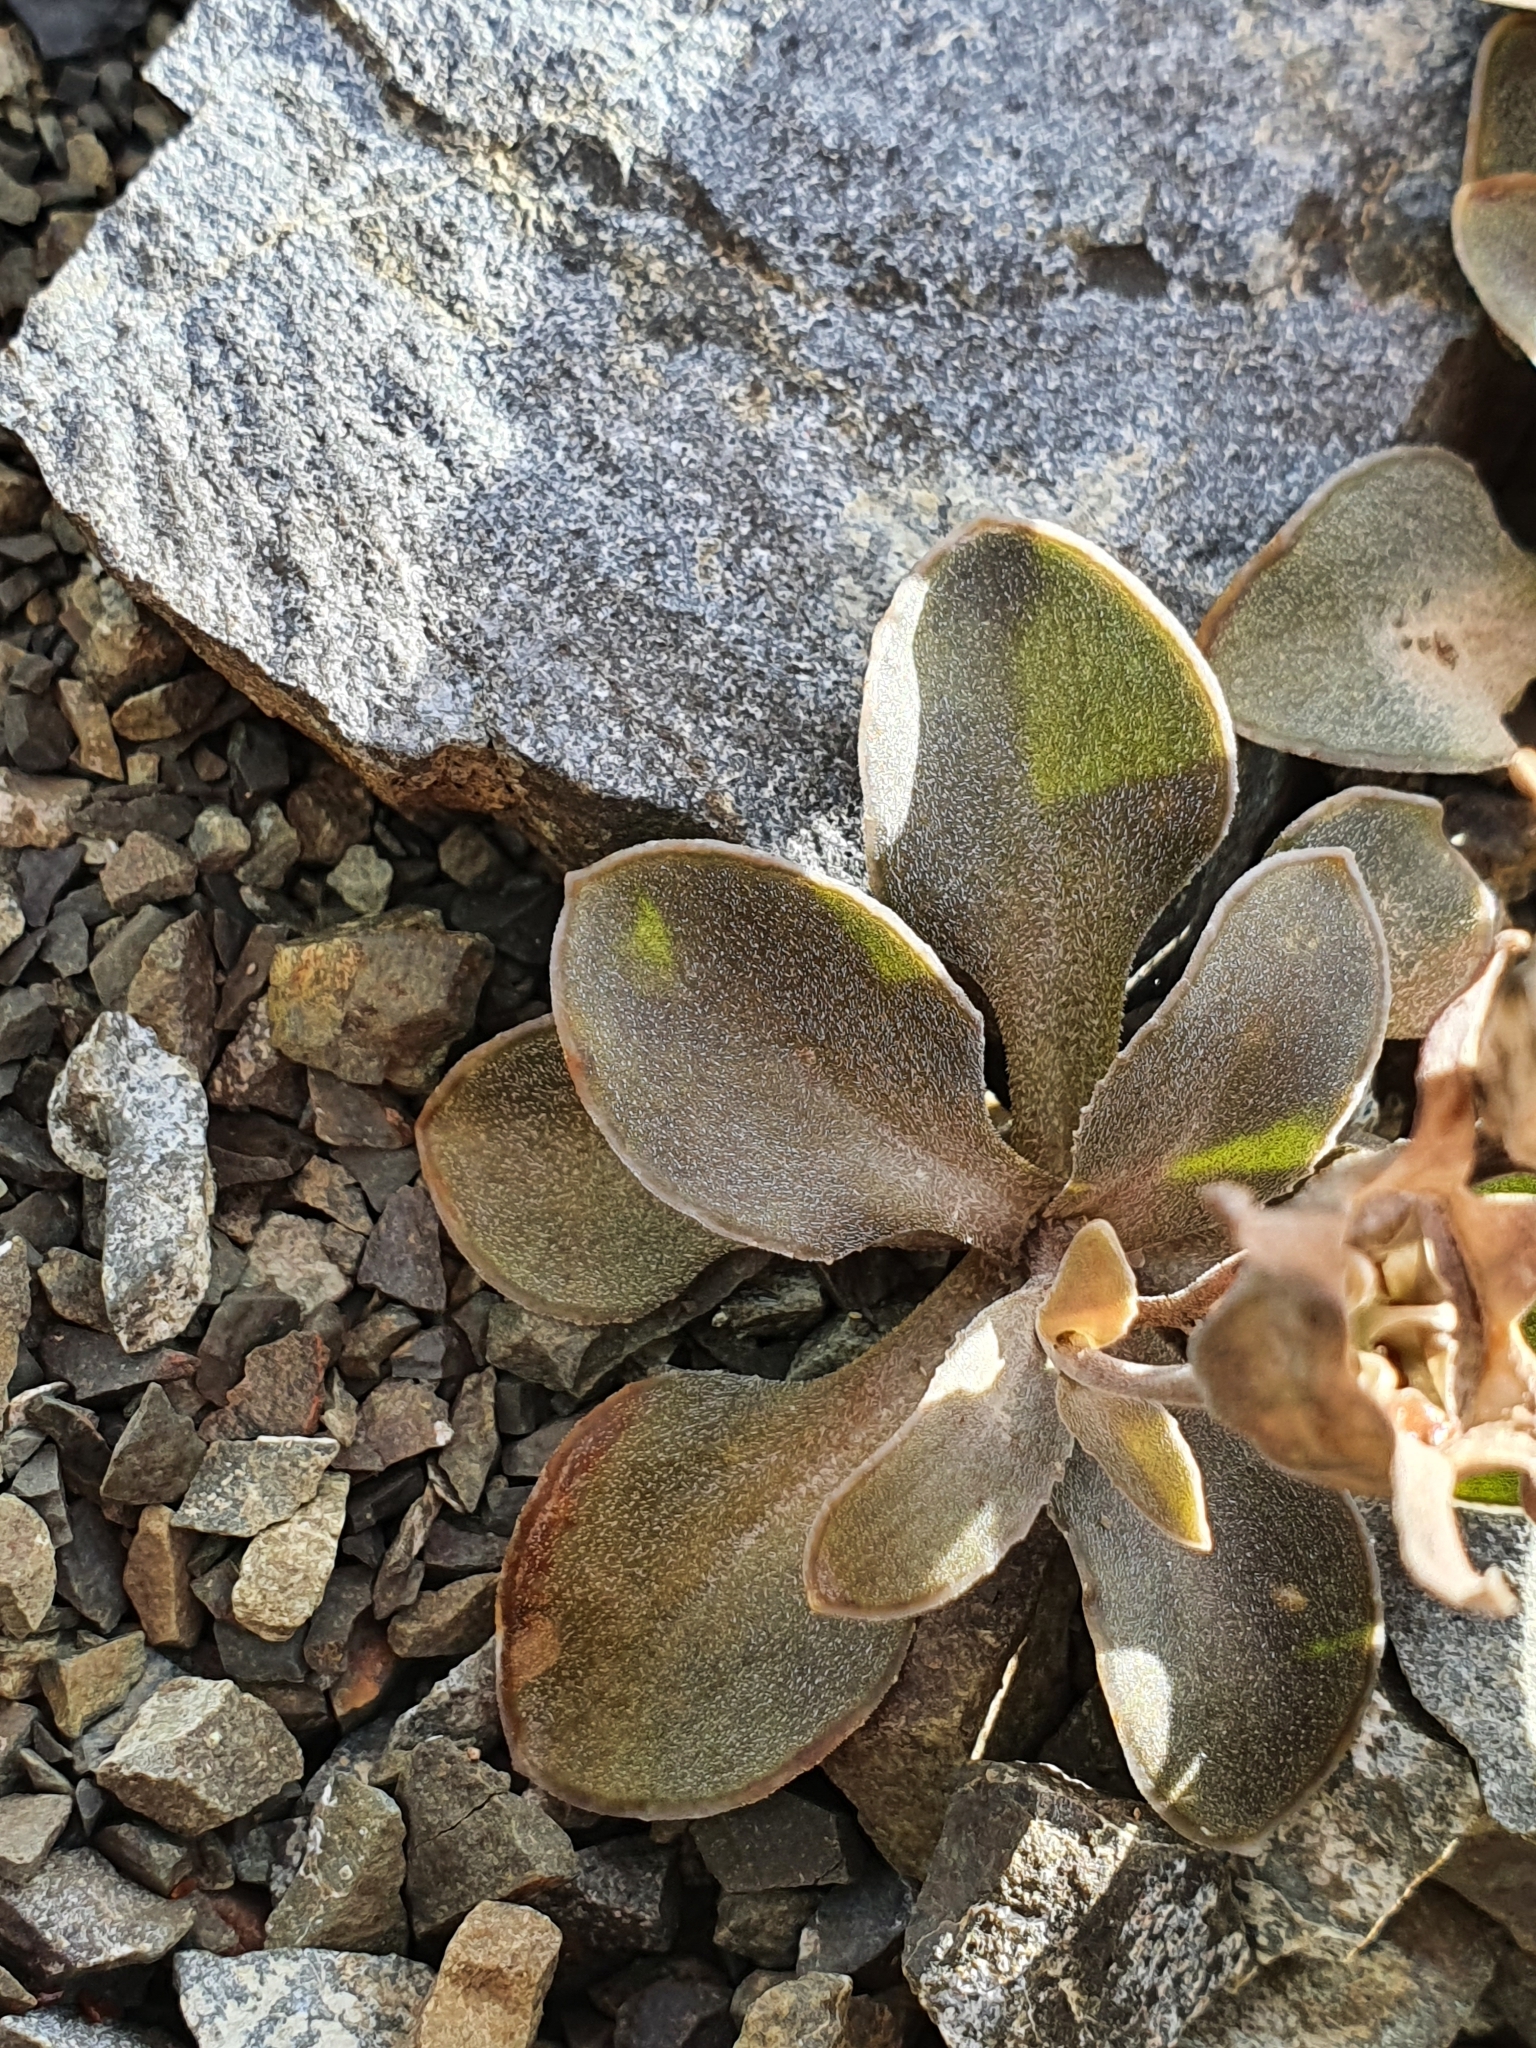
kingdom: Plantae
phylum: Tracheophyta
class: Magnoliopsida
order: Asterales
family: Campanulaceae
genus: Wahlenbergia
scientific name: Wahlenbergia cartilaginea
